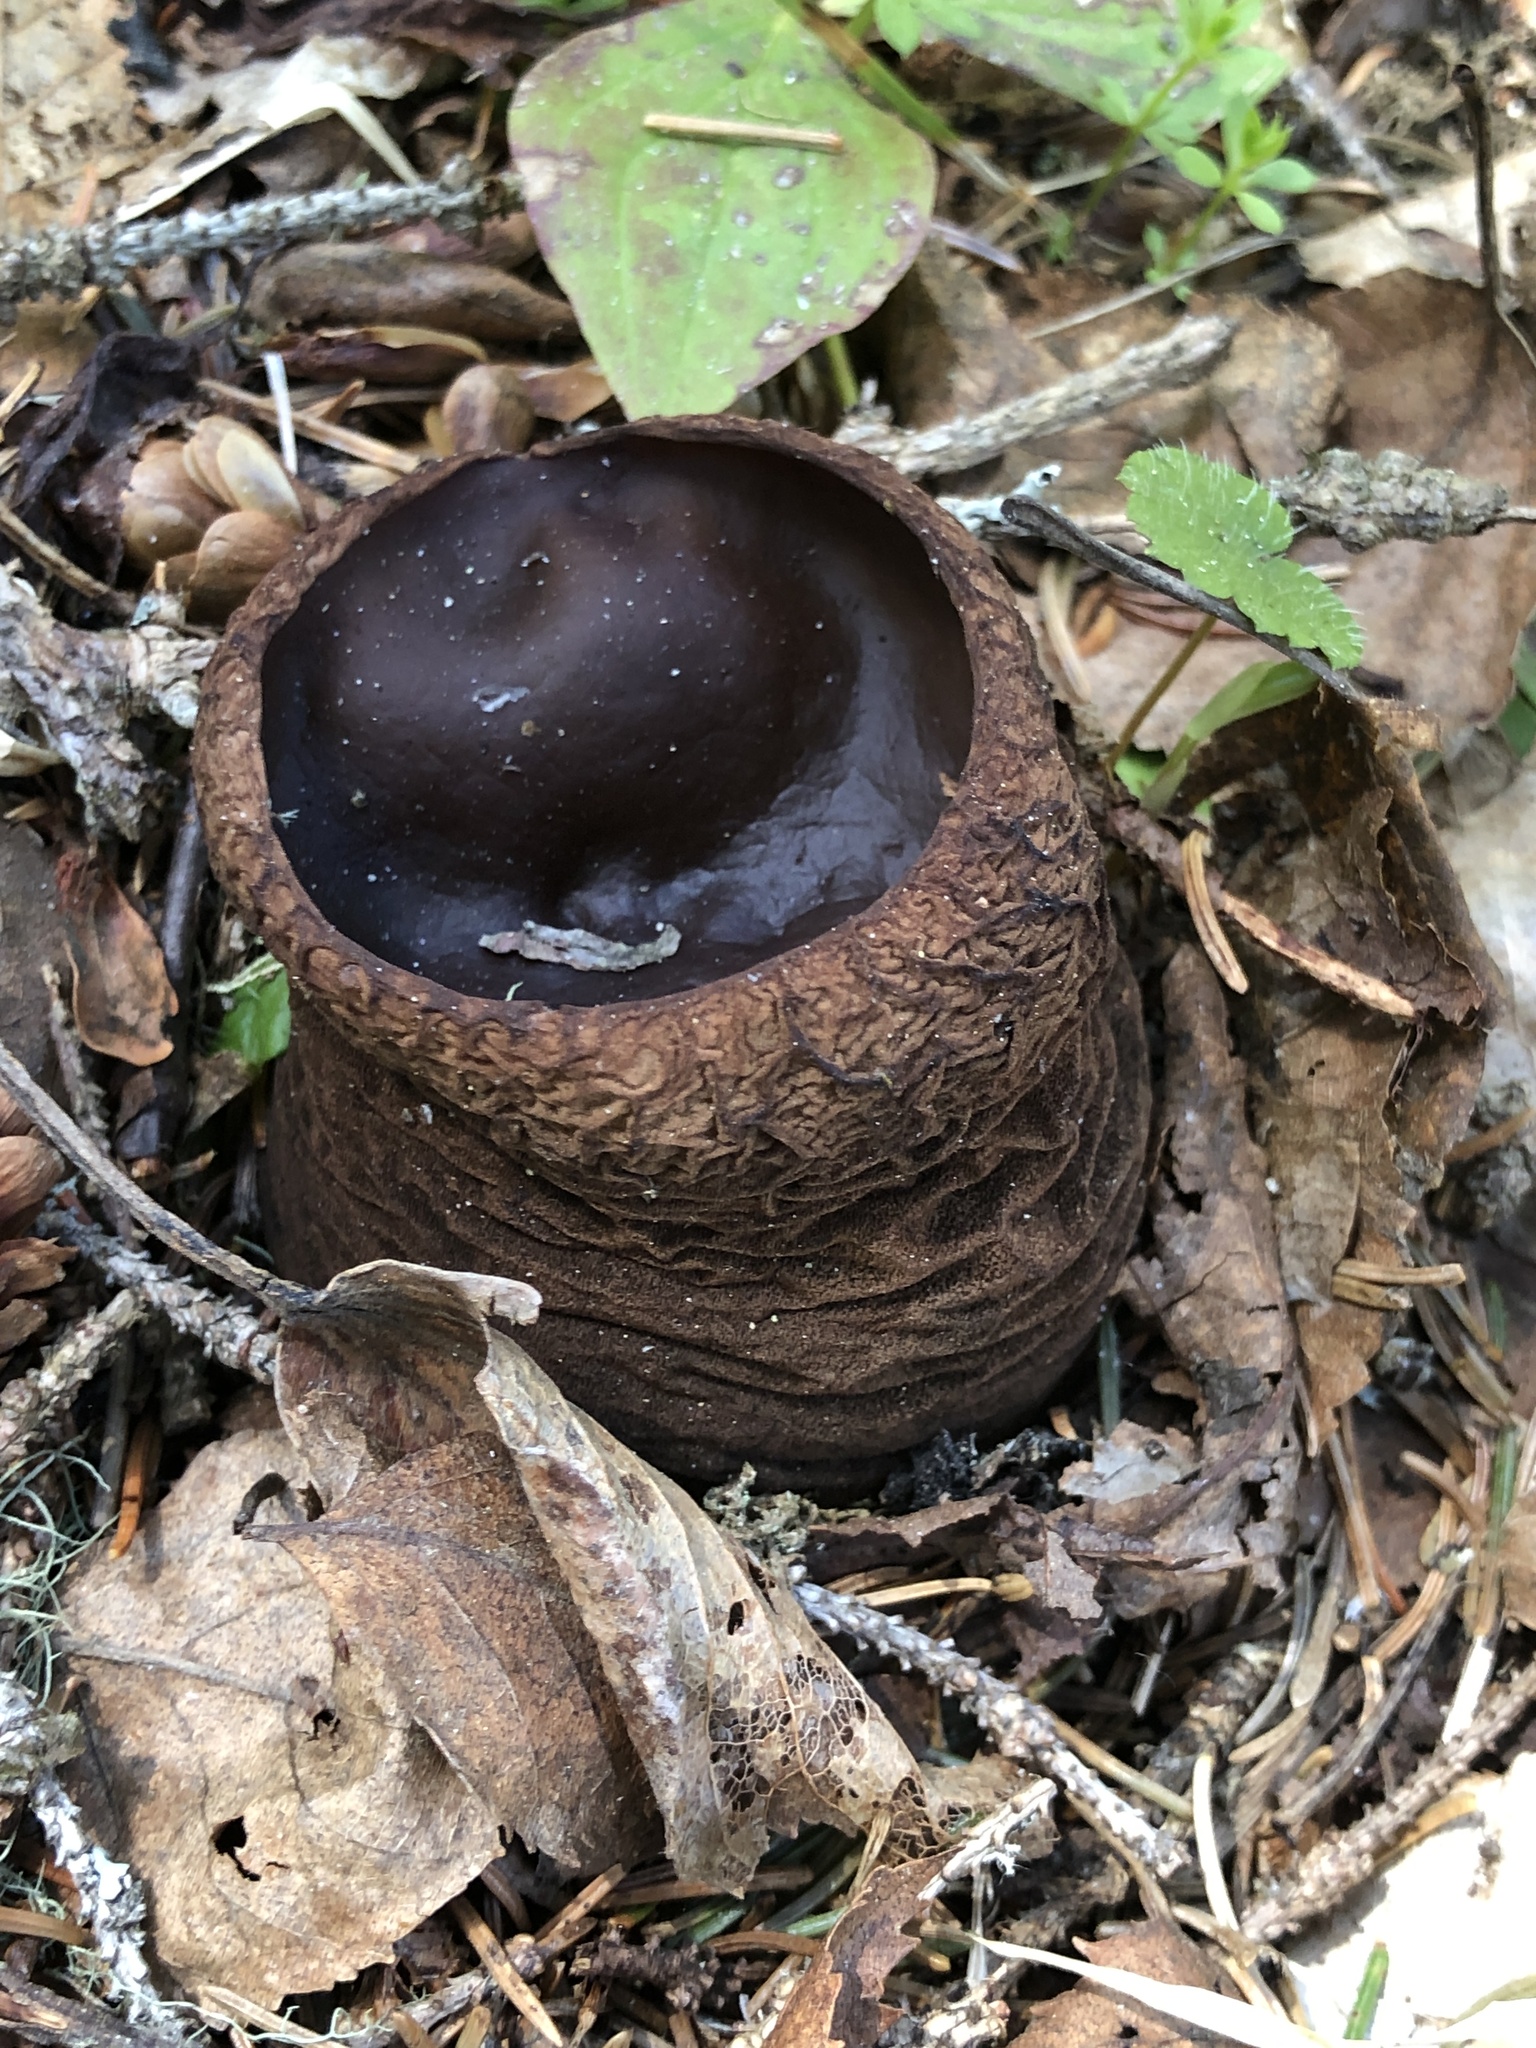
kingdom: Fungi
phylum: Ascomycota
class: Pezizomycetes
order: Pezizales
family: Sarcosomataceae
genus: Sarcosoma
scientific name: Sarcosoma globosum
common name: Charred-pancake cup
